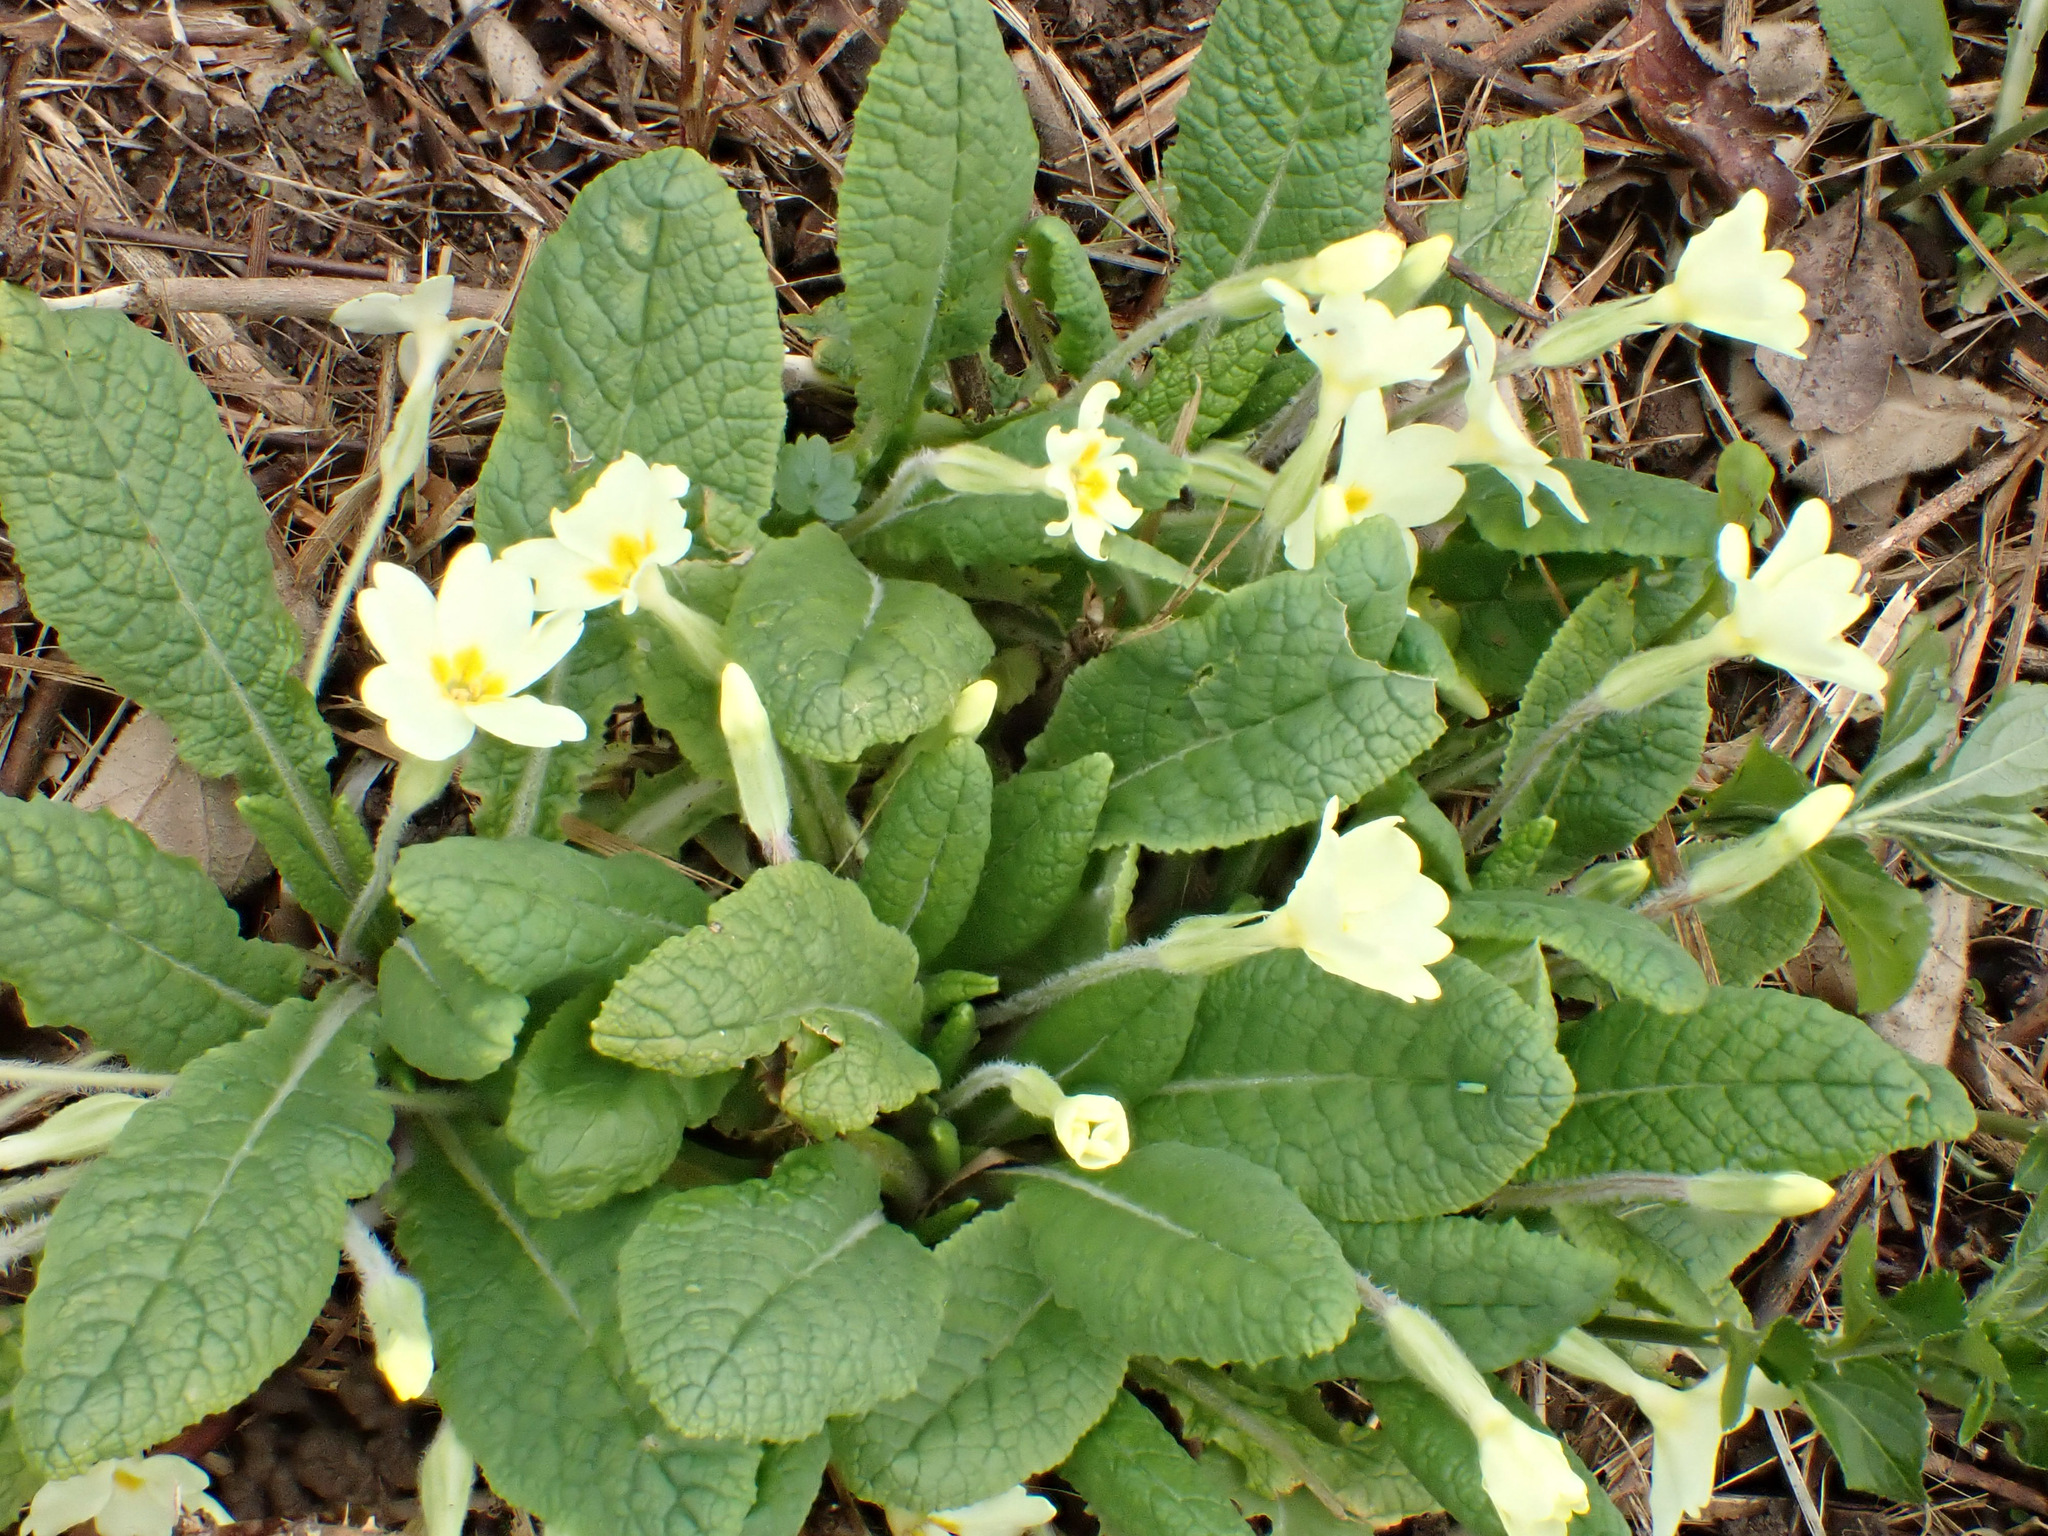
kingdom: Plantae
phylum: Tracheophyta
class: Magnoliopsida
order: Ericales
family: Primulaceae
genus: Primula
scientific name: Primula vulgaris
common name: Primrose
